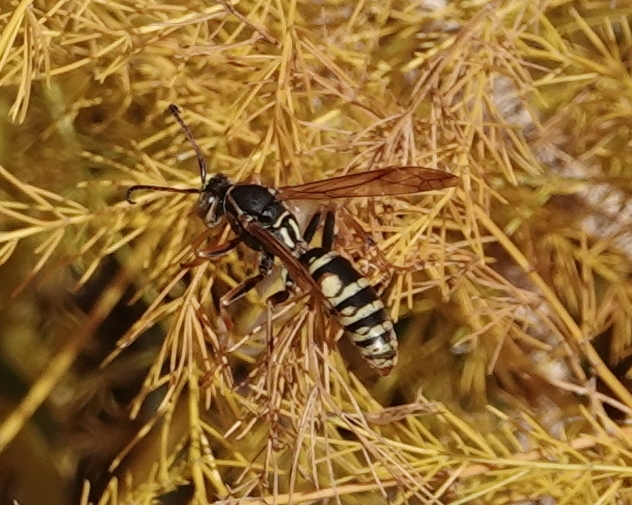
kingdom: Animalia
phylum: Arthropoda
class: Insecta
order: Hymenoptera
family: Eumenidae
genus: Polistes
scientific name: Polistes aurifer
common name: Paper wasp
